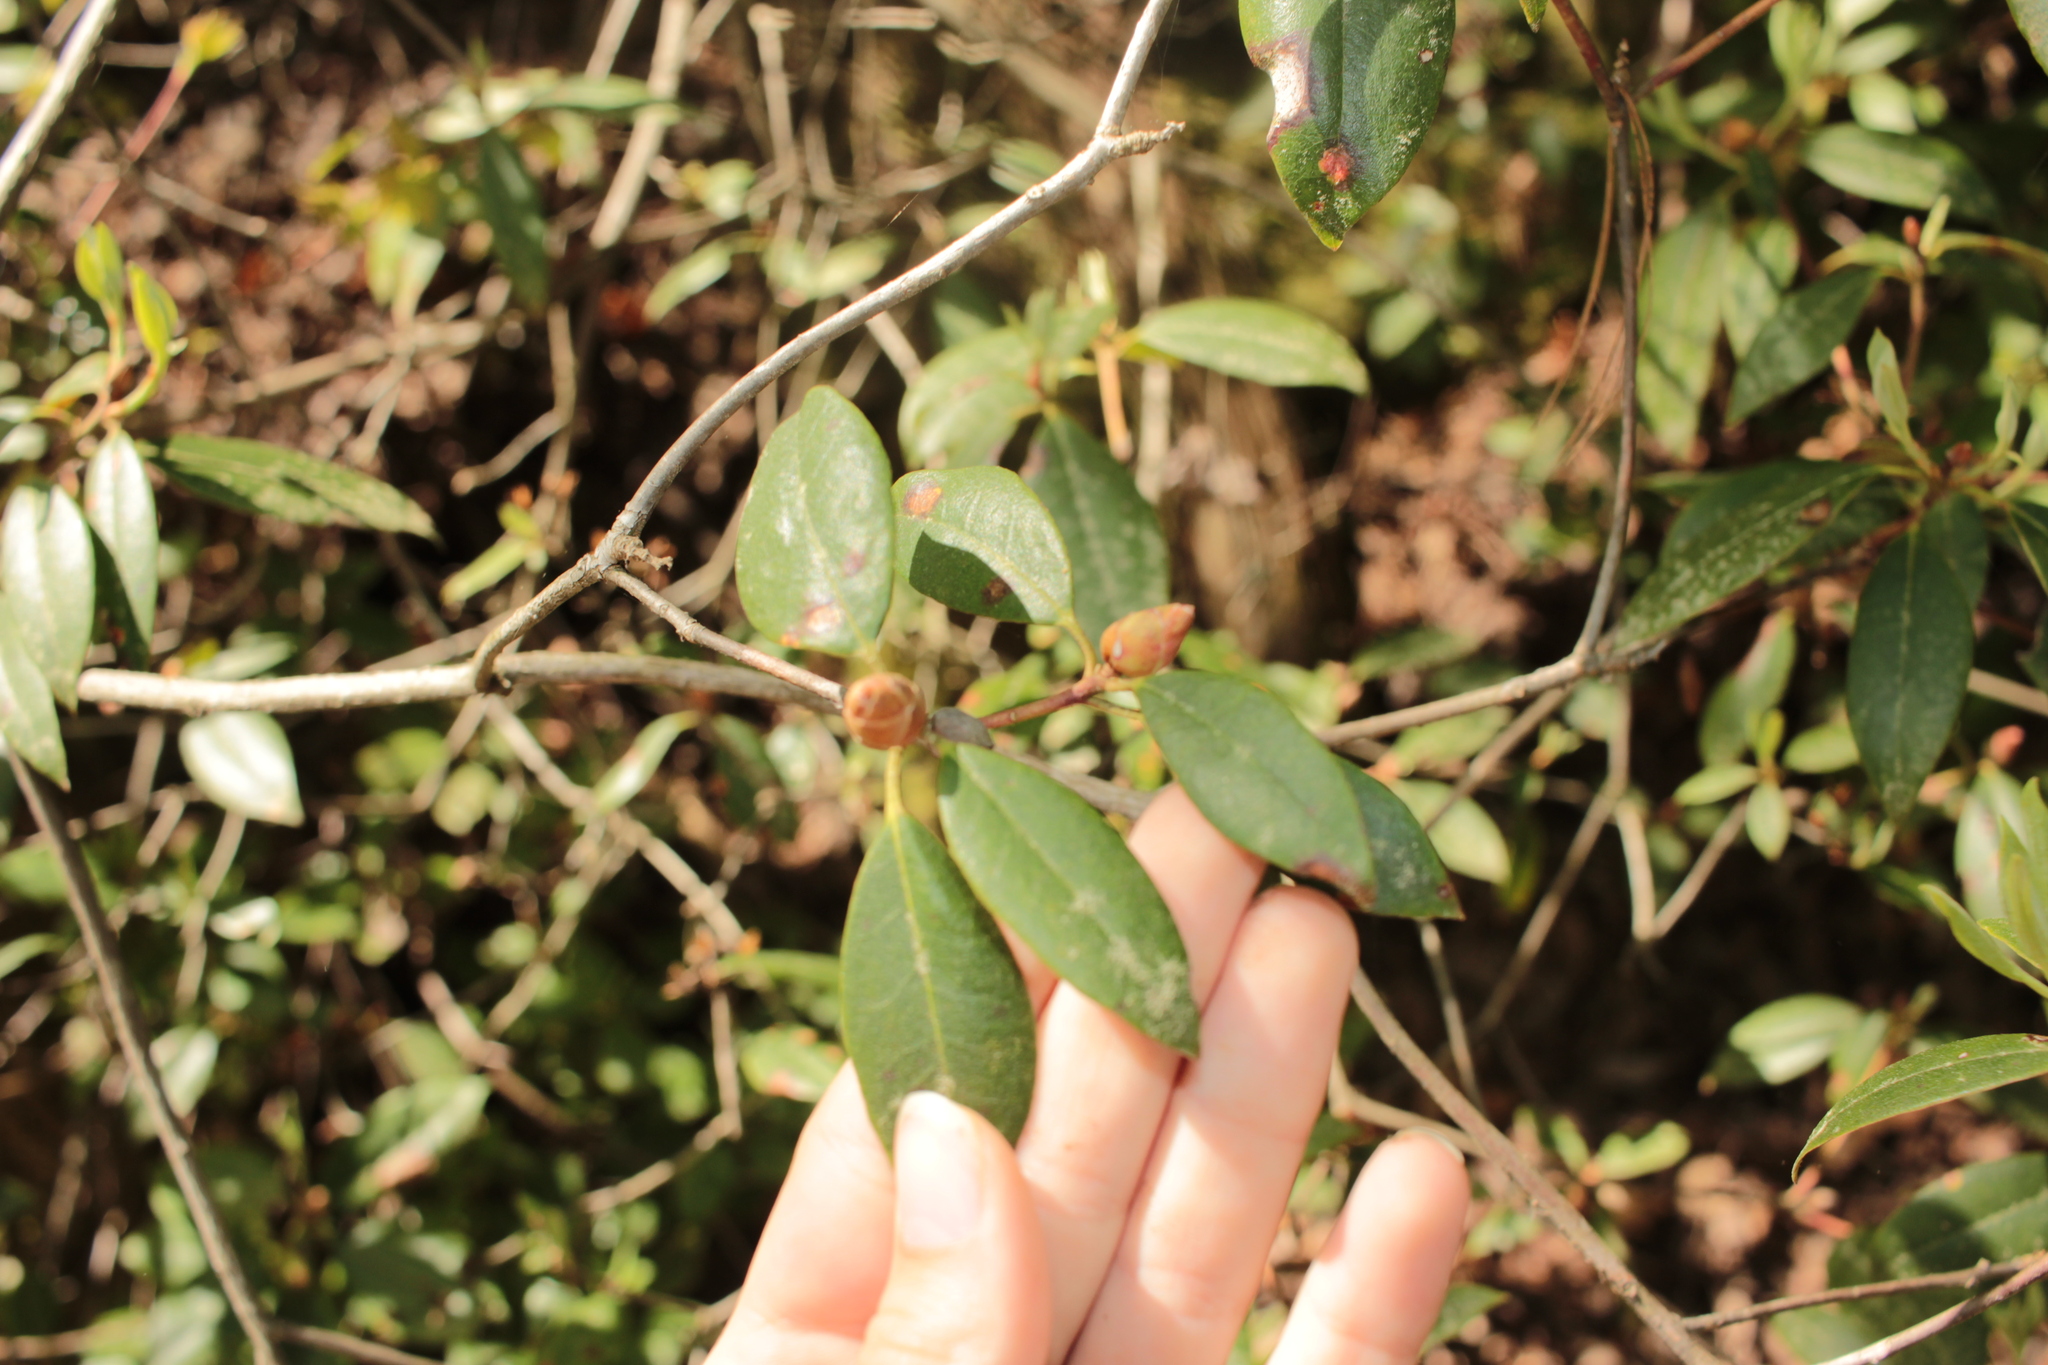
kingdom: Plantae
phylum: Tracheophyta
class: Magnoliopsida
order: Ericales
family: Ericaceae
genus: Rhododendron
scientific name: Rhododendron minus
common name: Piedmont rhododendron
